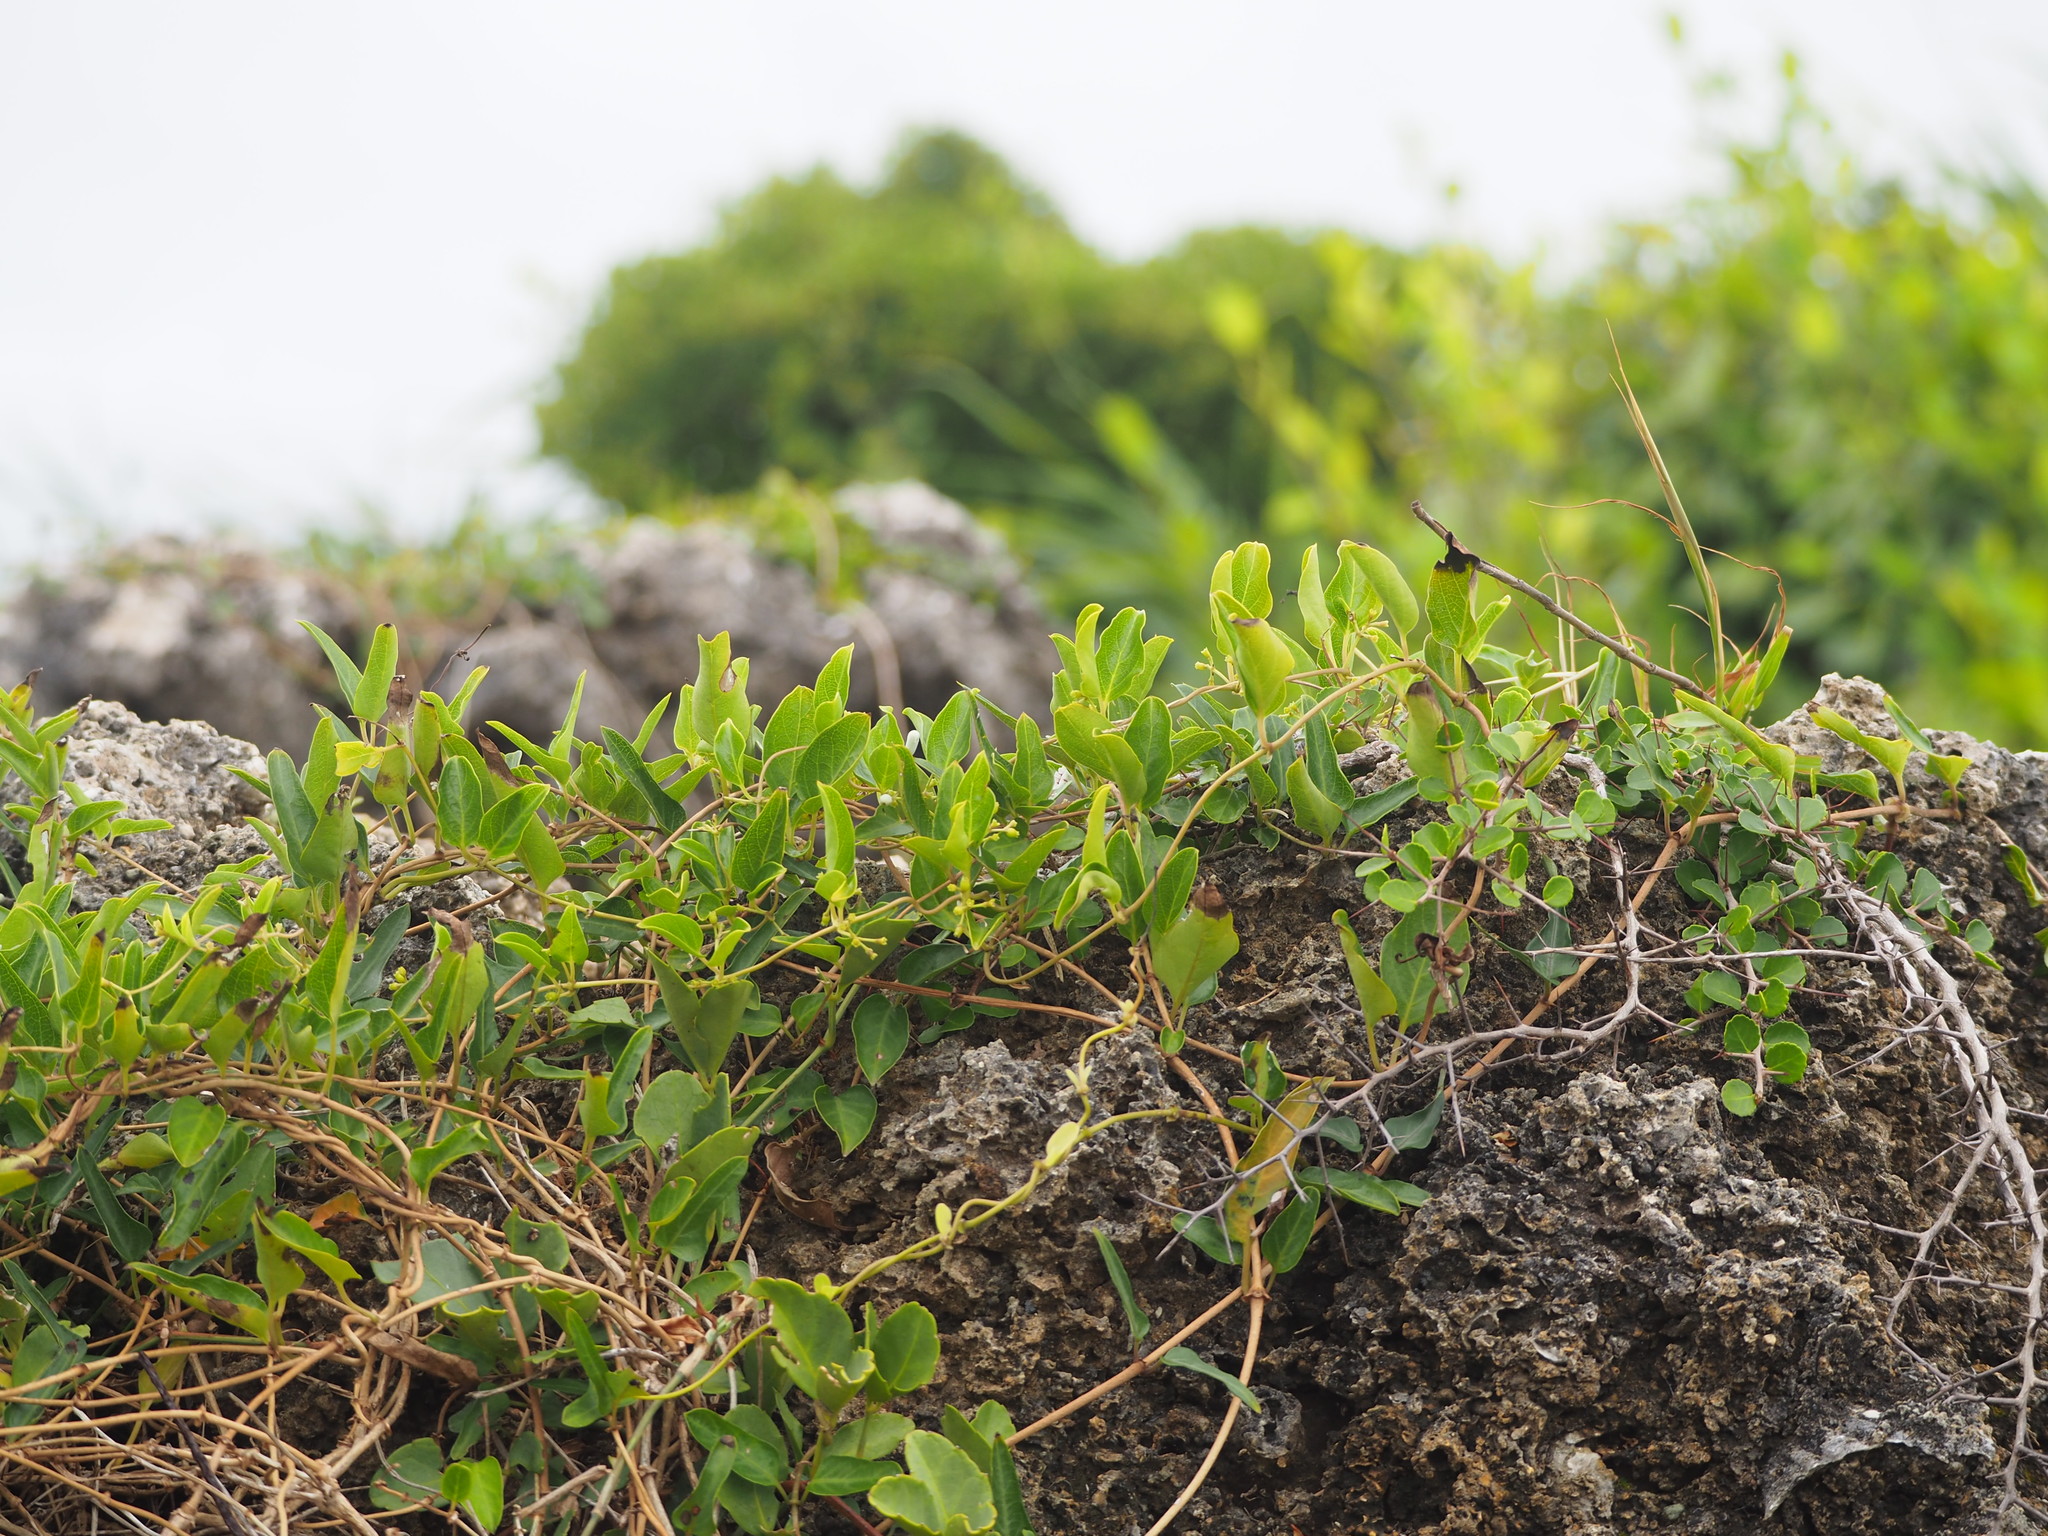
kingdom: Plantae
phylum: Tracheophyta
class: Magnoliopsida
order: Vitales
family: Vitaceae
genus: Tetrastigma
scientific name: Tetrastigma formosanum
